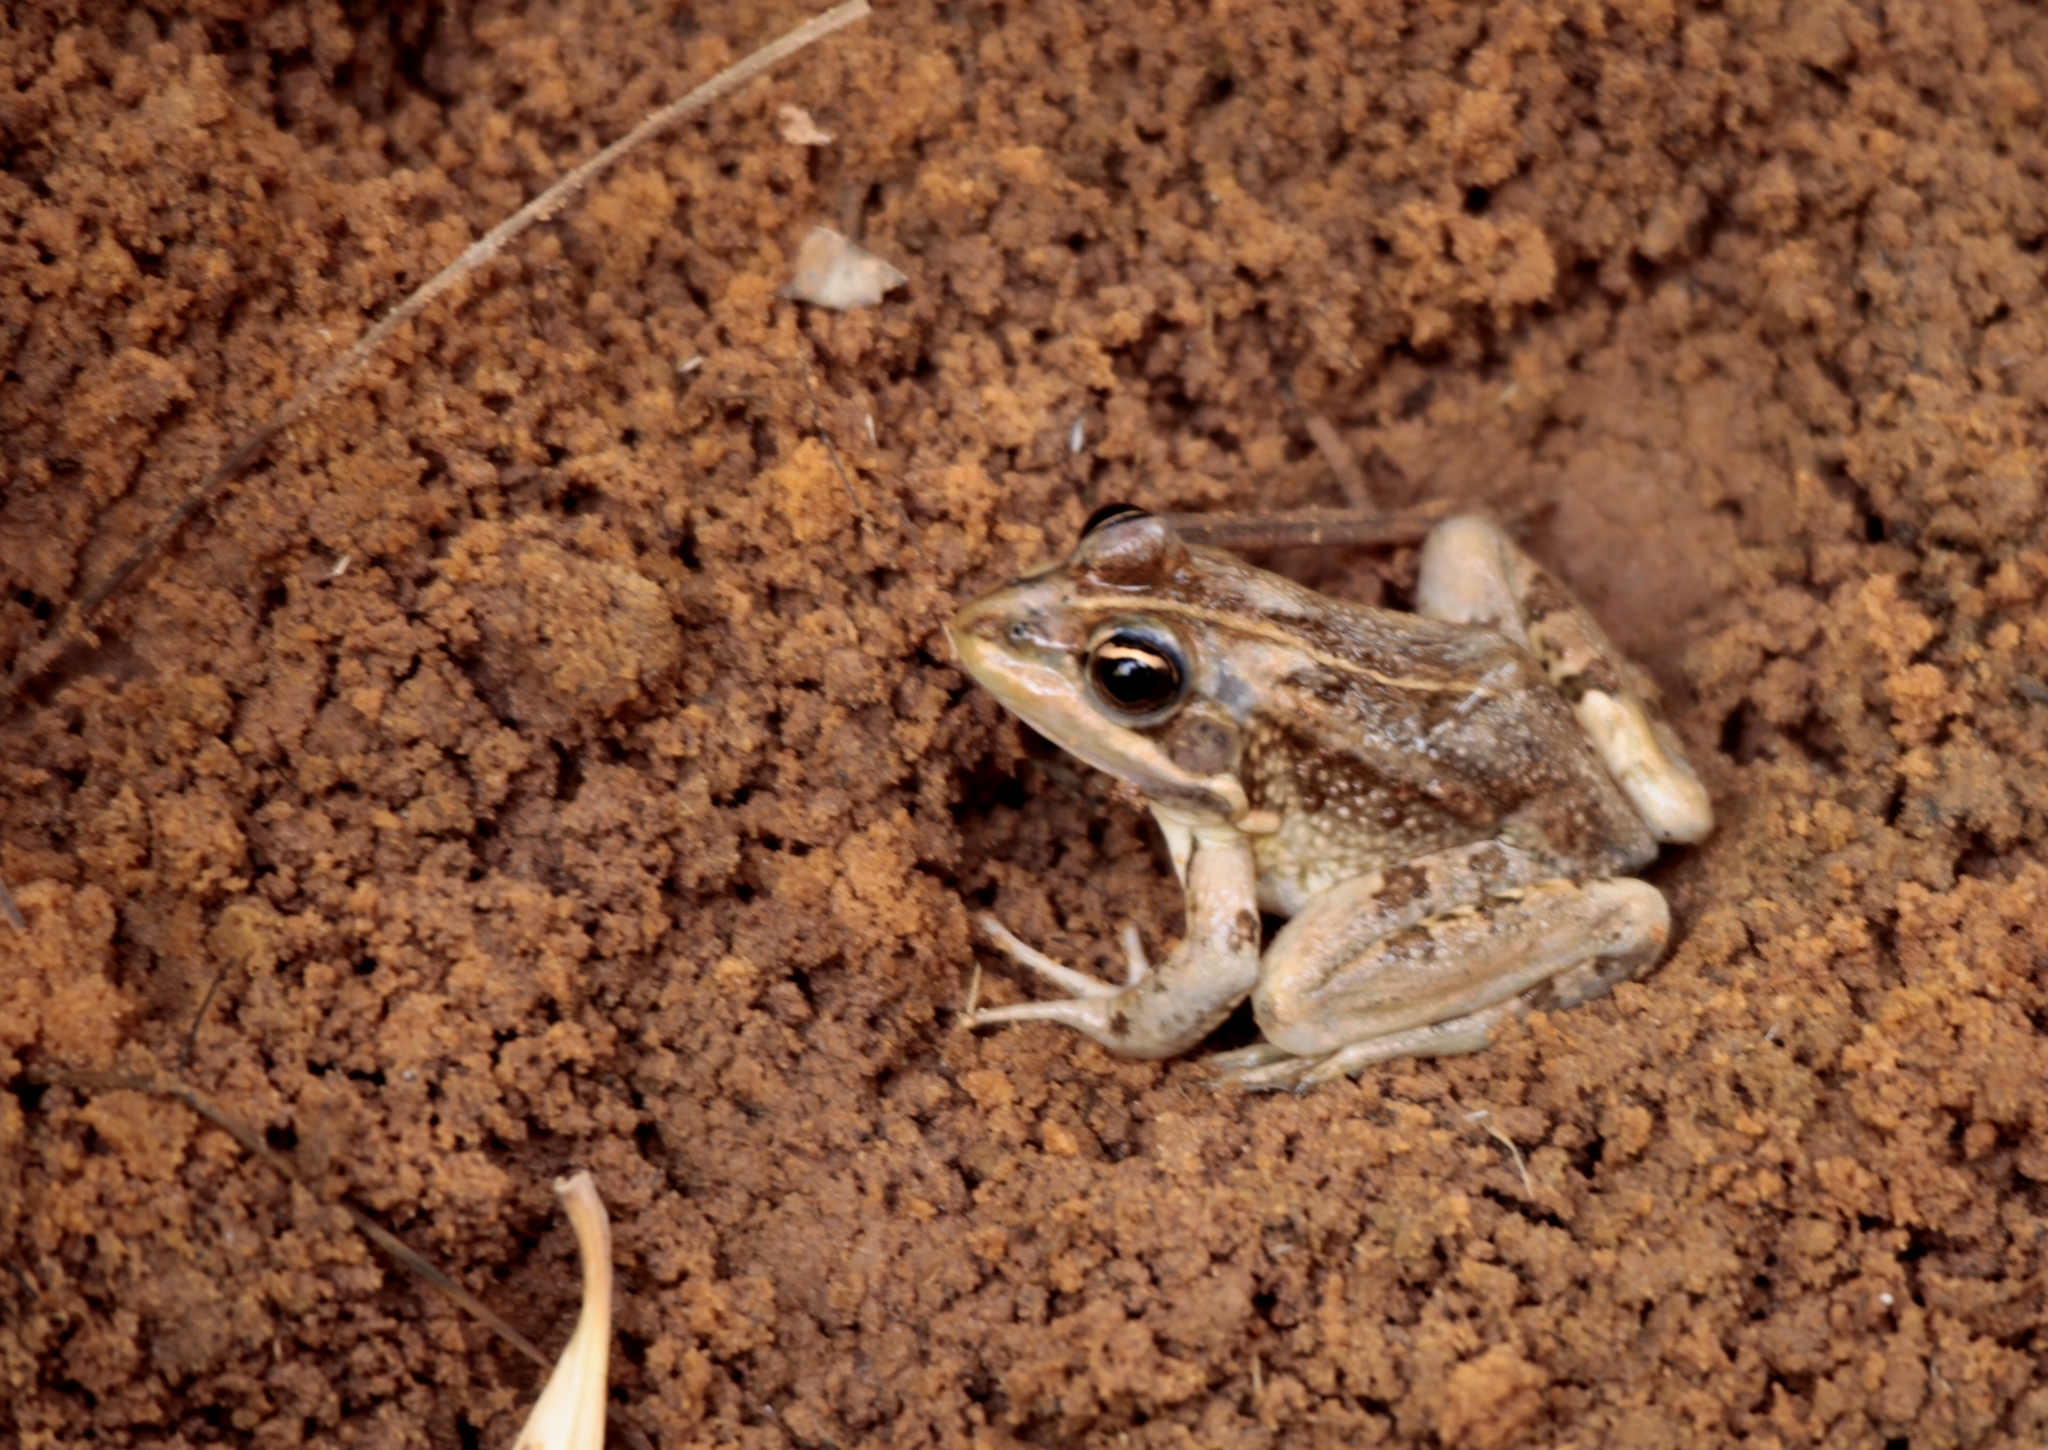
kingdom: Animalia
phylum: Chordata
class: Amphibia
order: Anura
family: Ranidae
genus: Pelophylax
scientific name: Pelophylax saharicus
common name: Sahara frog
